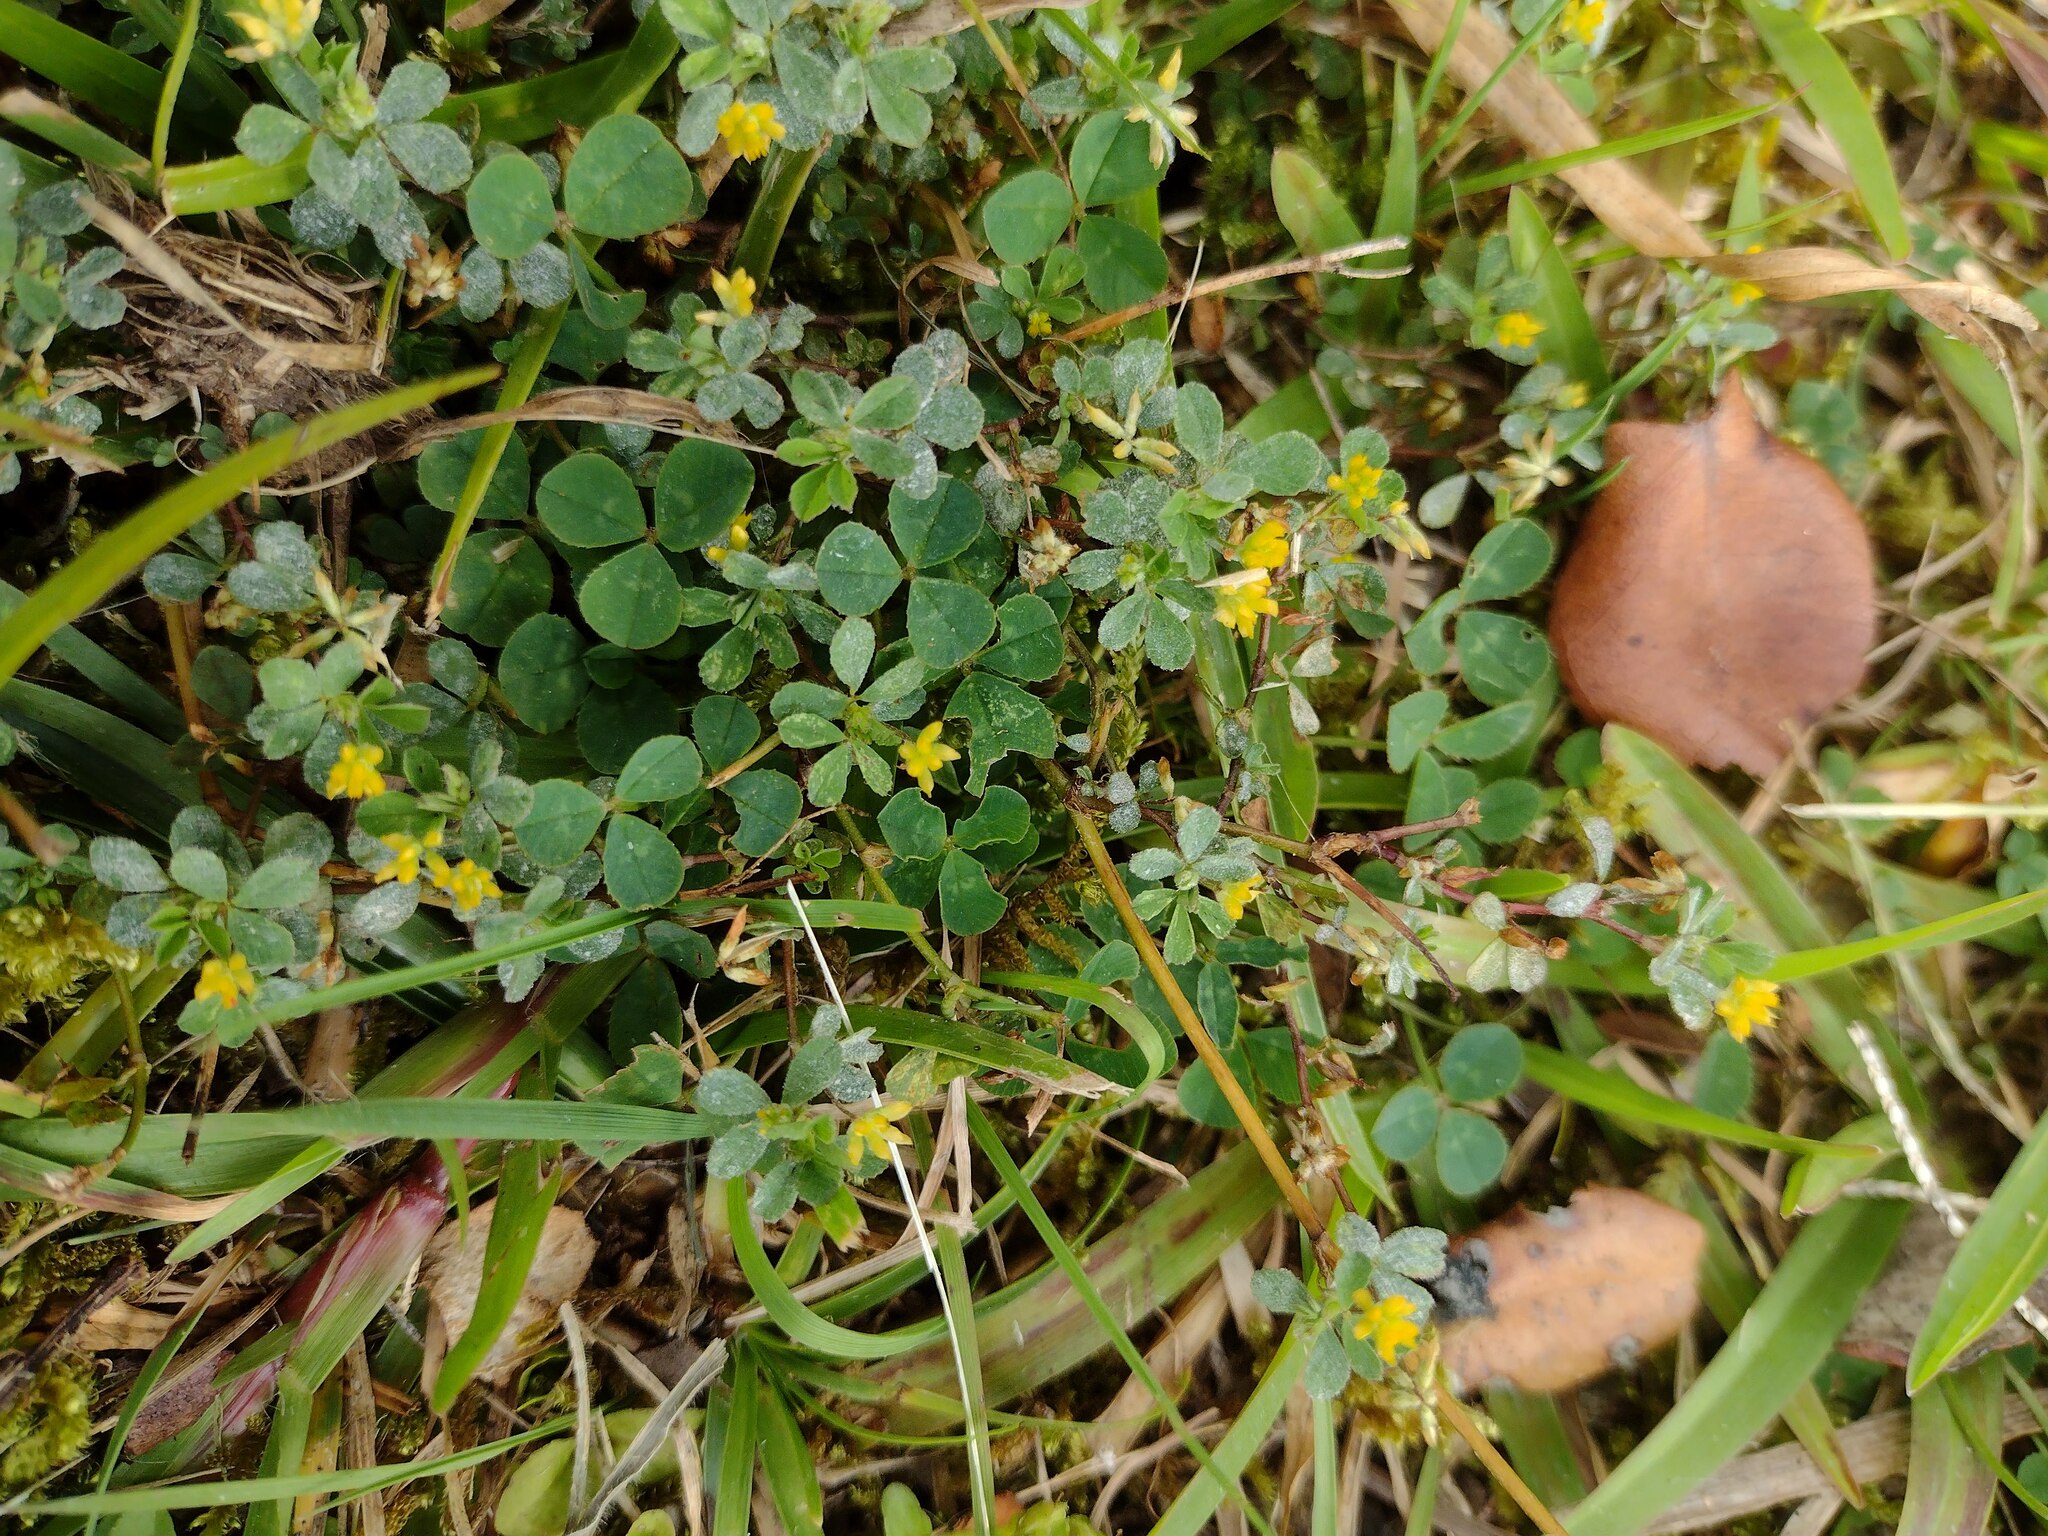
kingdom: Plantae
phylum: Tracheophyta
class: Magnoliopsida
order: Fabales
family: Fabaceae
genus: Trifolium
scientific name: Trifolium dubium
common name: Suckling clover
